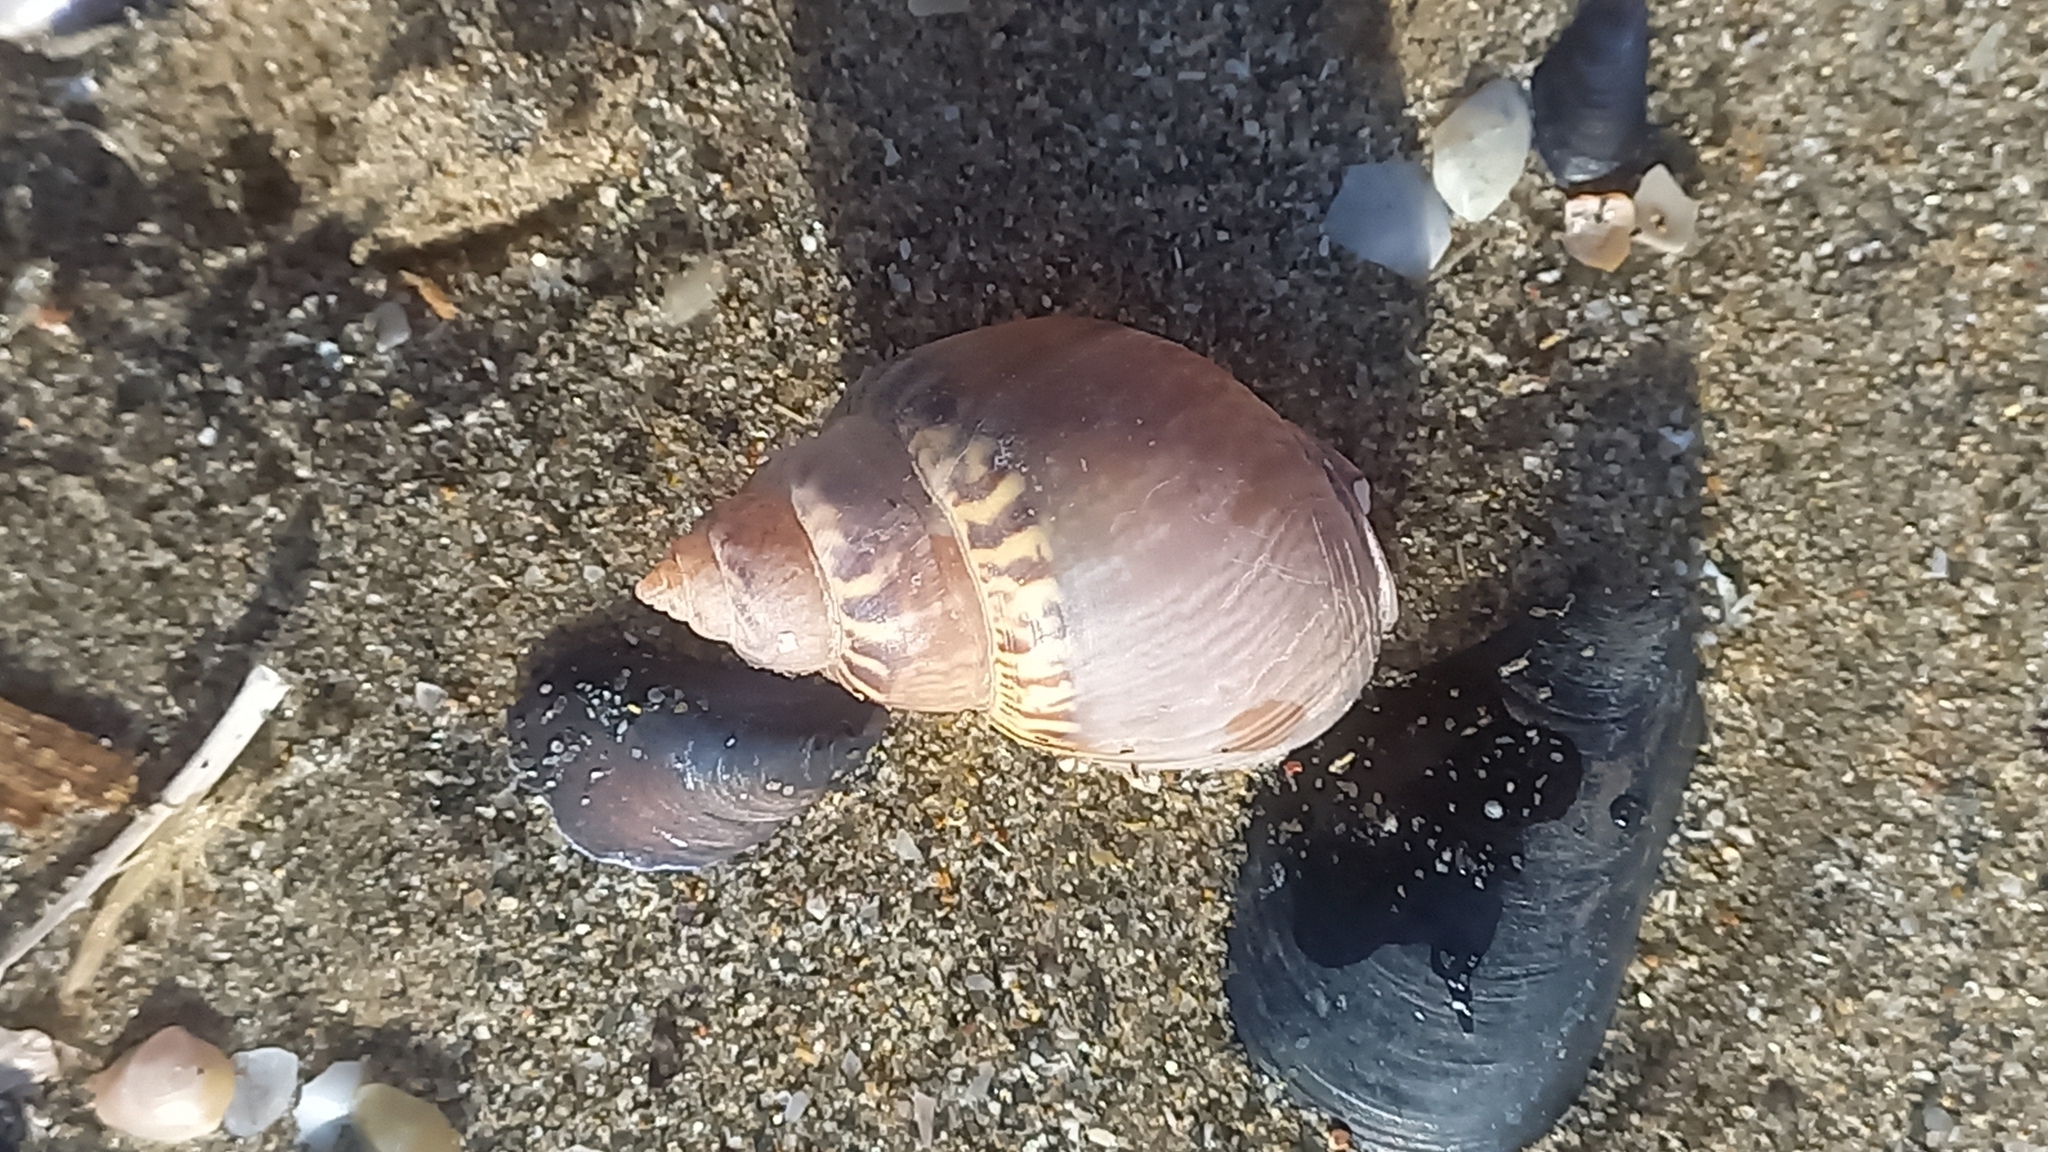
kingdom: Animalia
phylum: Mollusca
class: Gastropoda
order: Neogastropoda
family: Nassariidae
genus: Tritia
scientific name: Tritia mutabilis
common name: Mutable nassa
